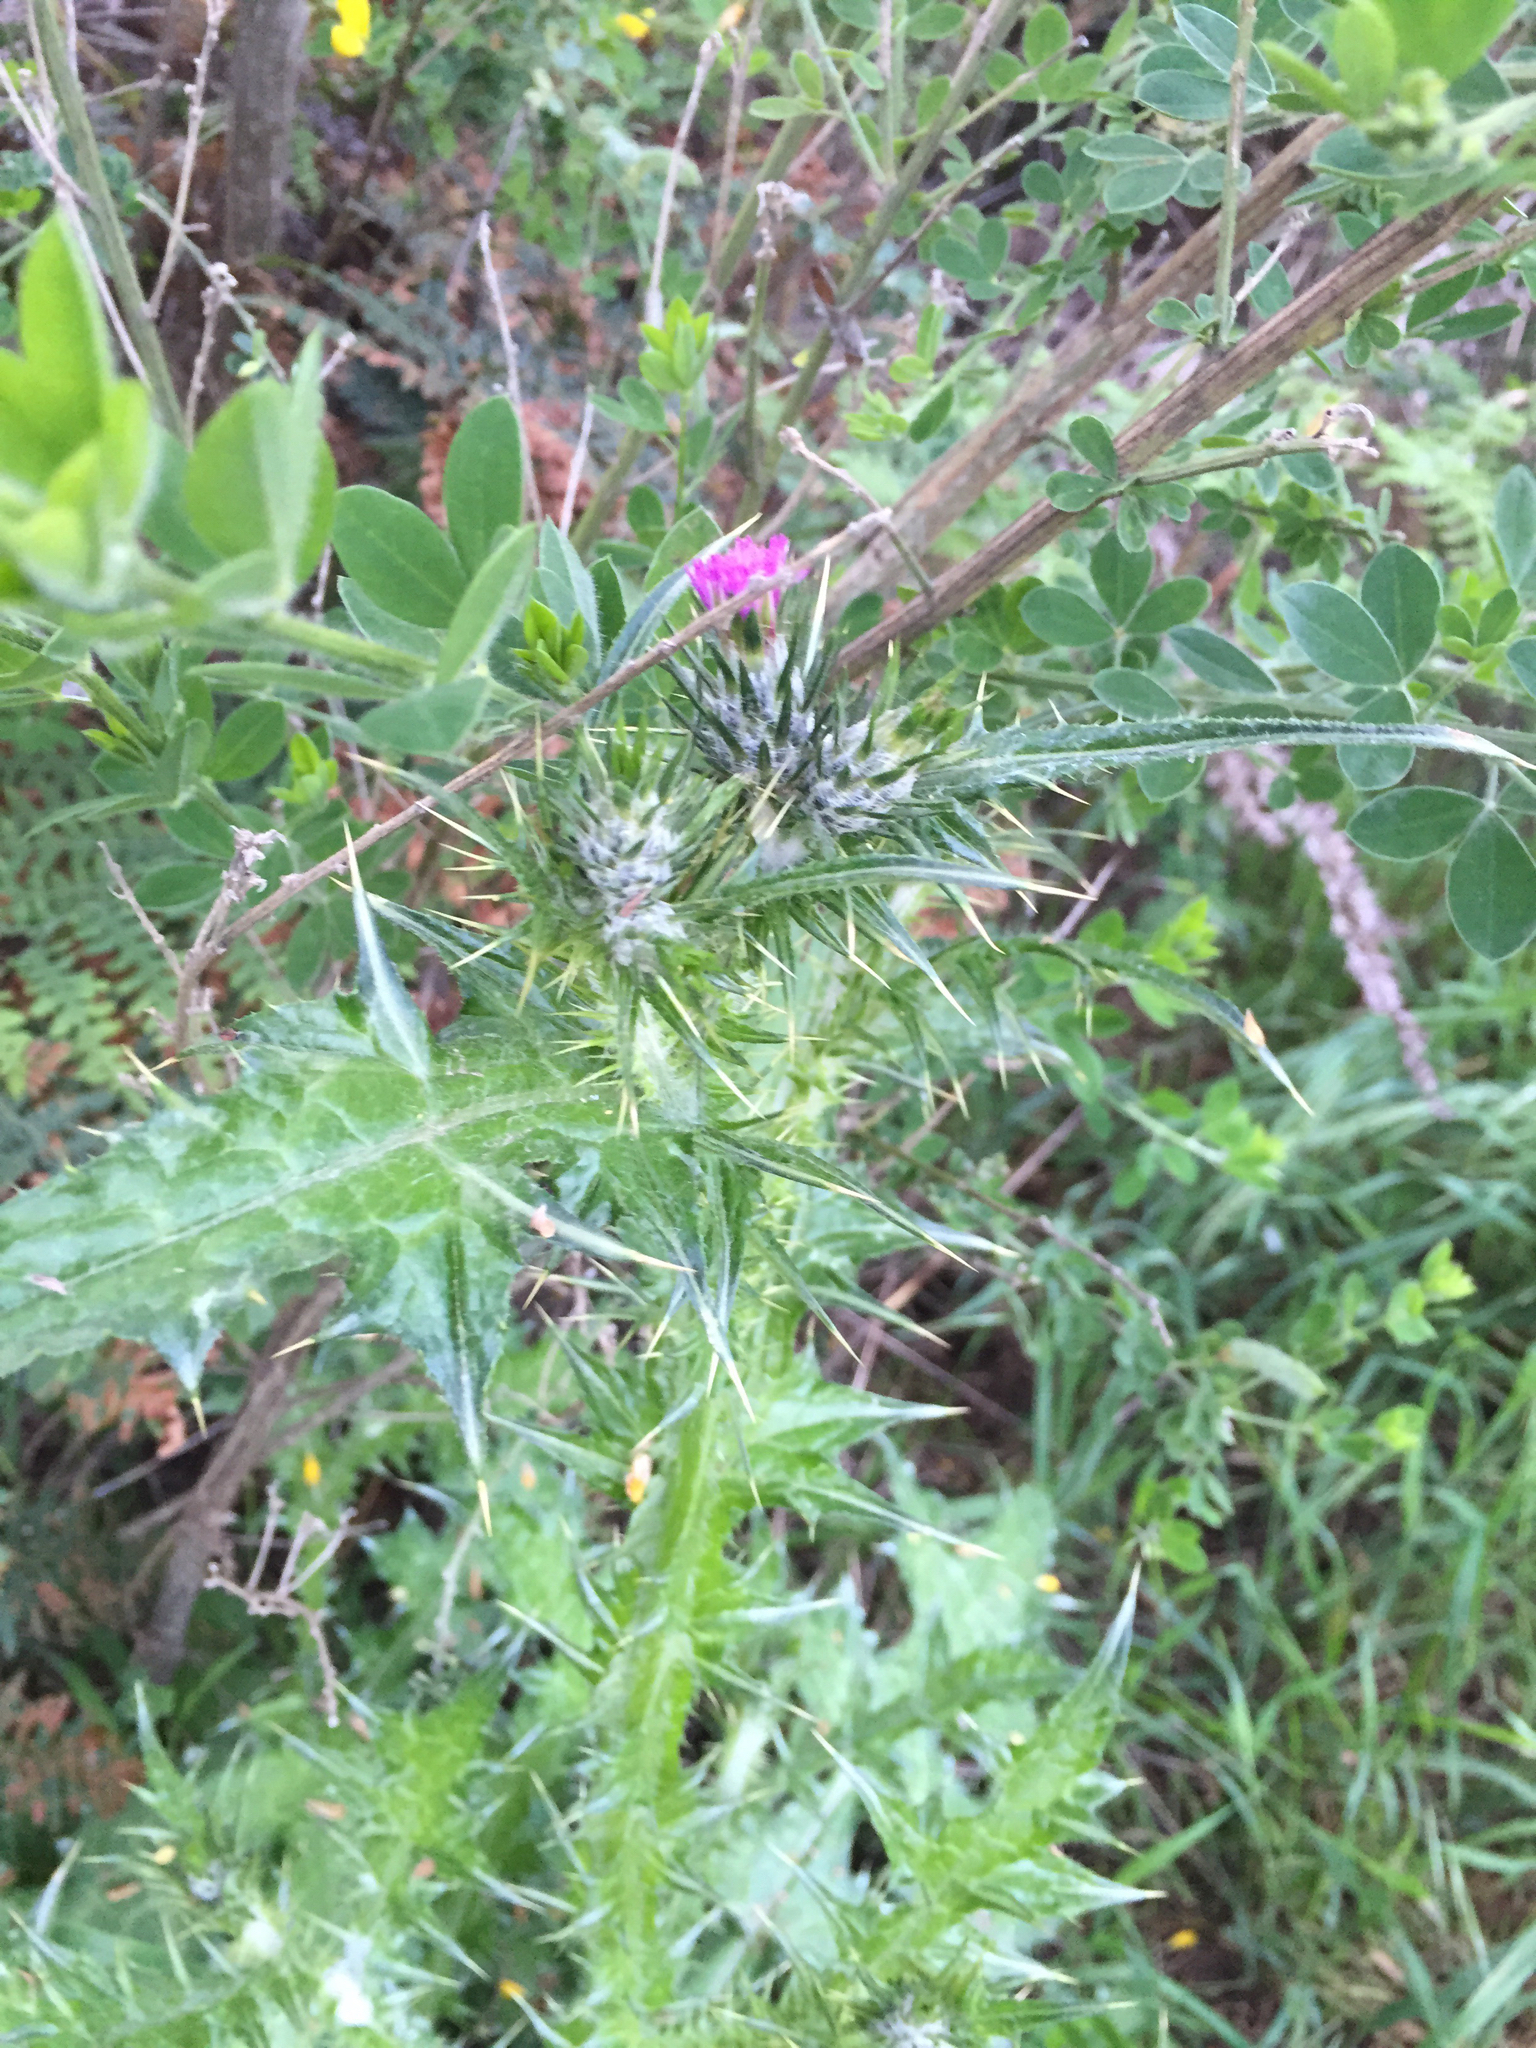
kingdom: Plantae
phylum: Tracheophyta
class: Magnoliopsida
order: Asterales
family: Asteraceae
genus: Carduus
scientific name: Carduus pycnocephalus
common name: Plymouth thistle
